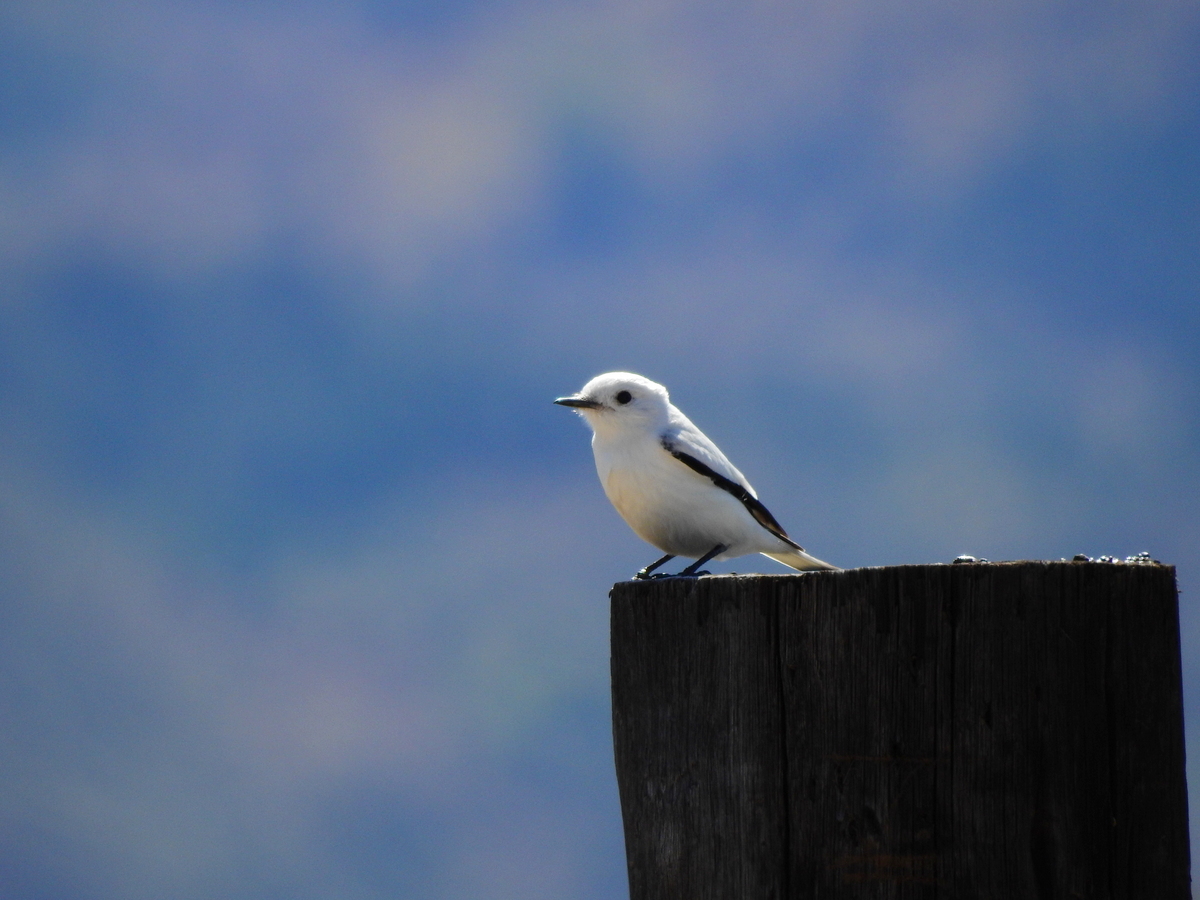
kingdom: Animalia
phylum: Chordata
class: Aves
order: Passeriformes
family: Tyrannidae
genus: Xolmis
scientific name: Xolmis irupero
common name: White monjita
